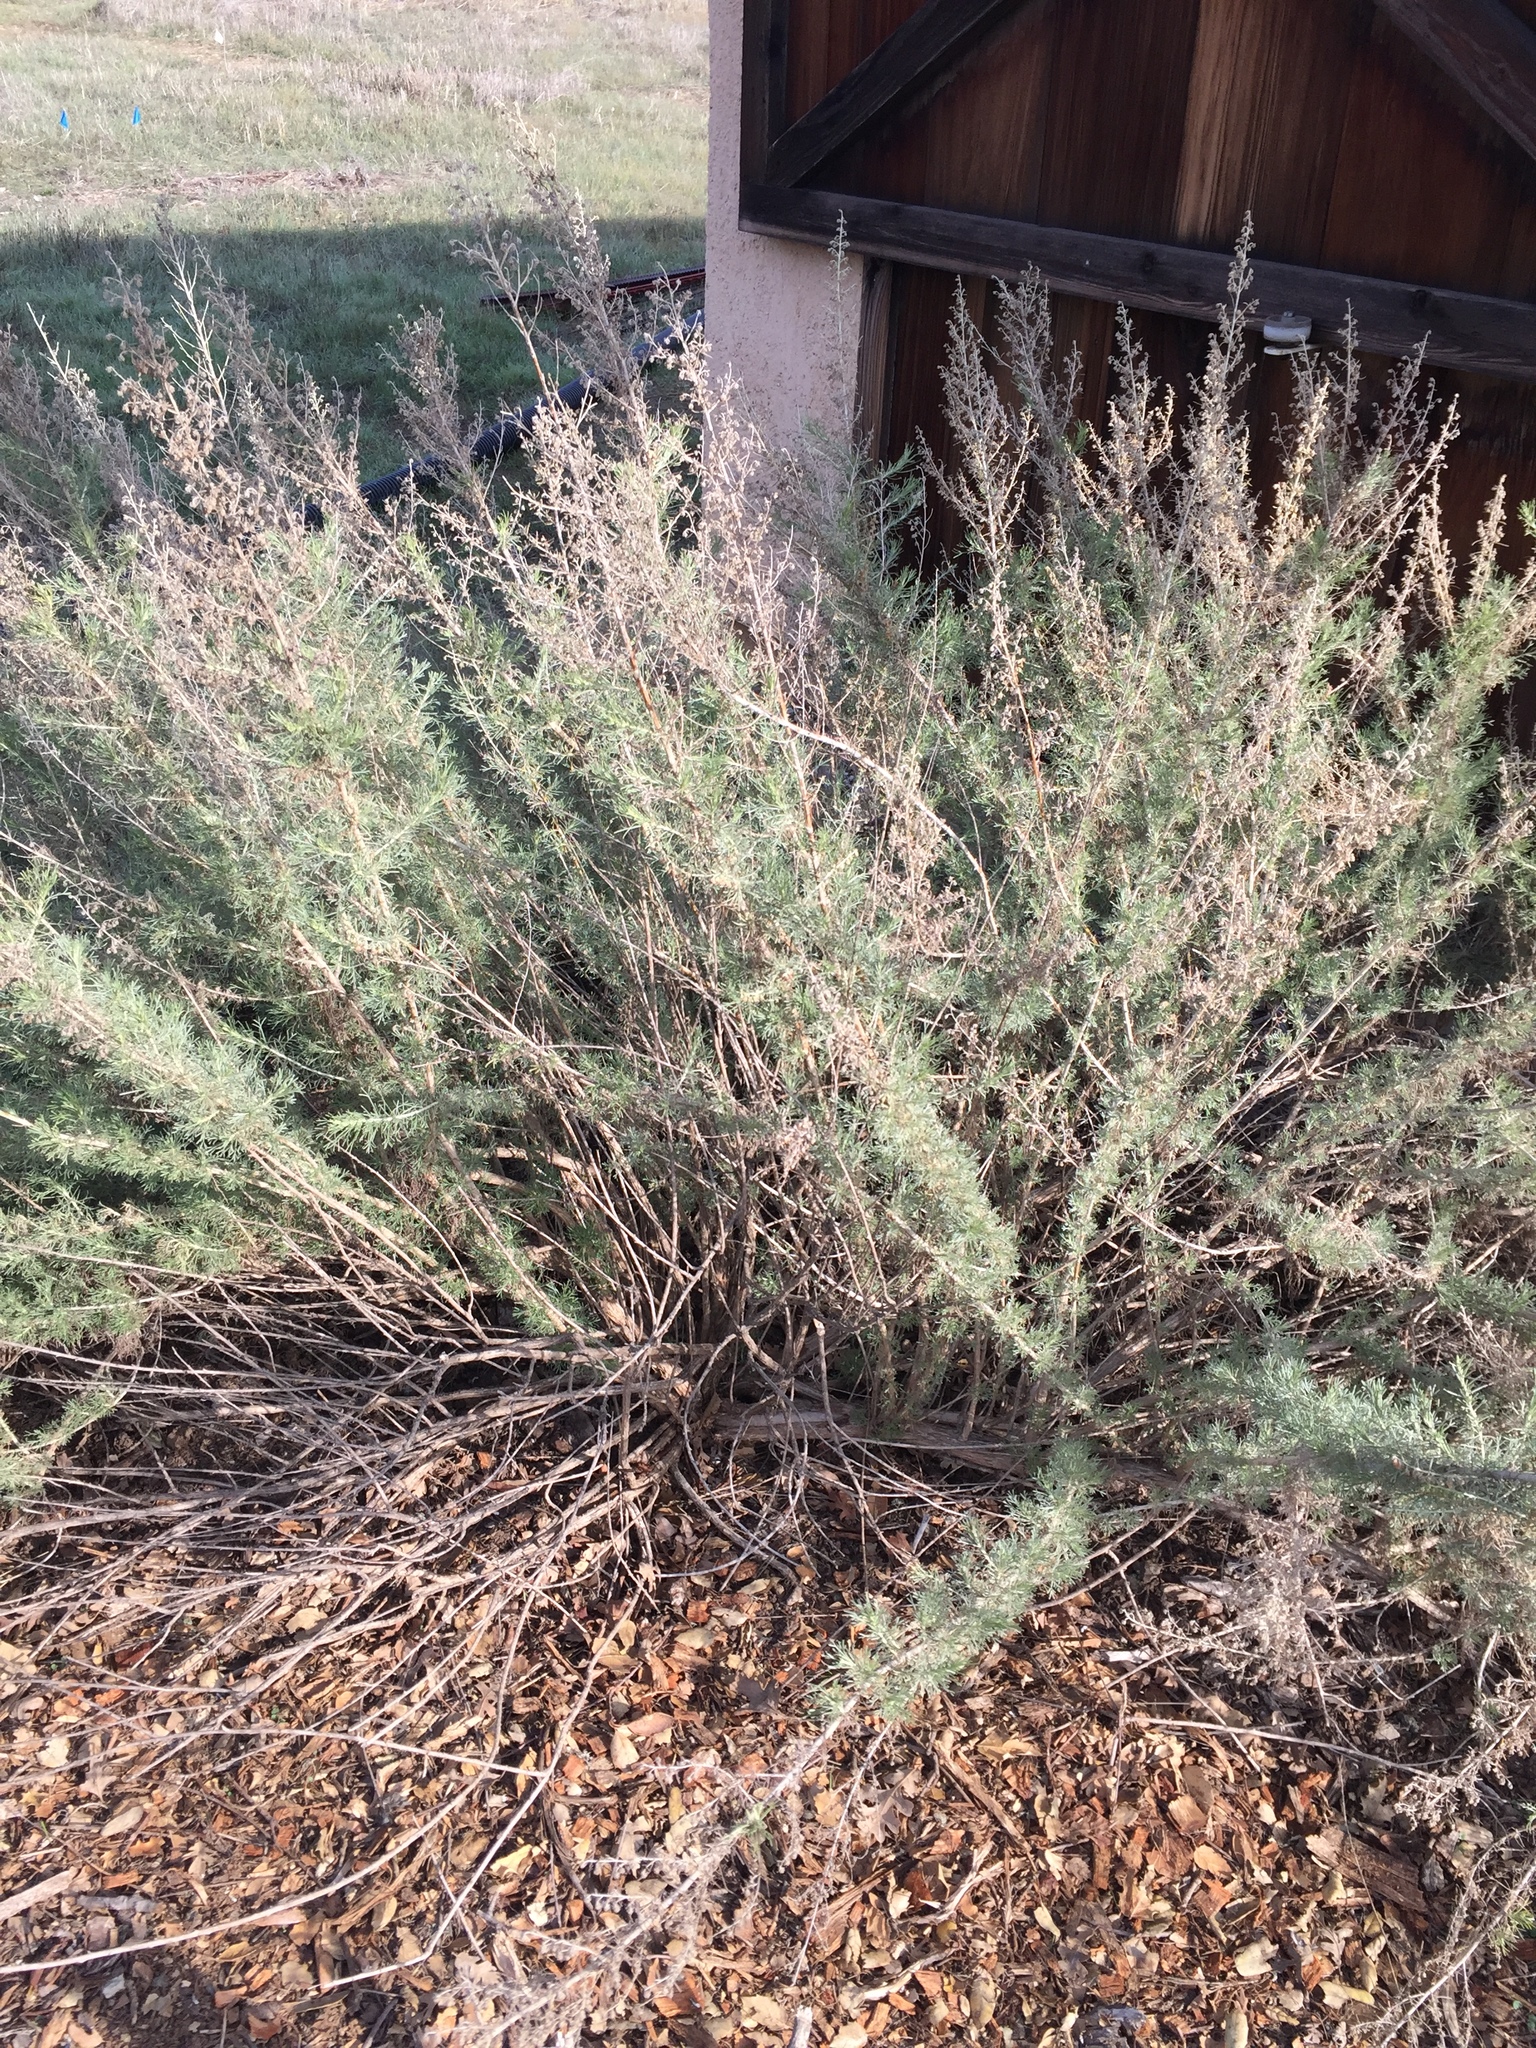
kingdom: Plantae
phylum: Tracheophyta
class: Magnoliopsida
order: Asterales
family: Asteraceae
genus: Artemisia
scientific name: Artemisia californica
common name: California sagebrush
